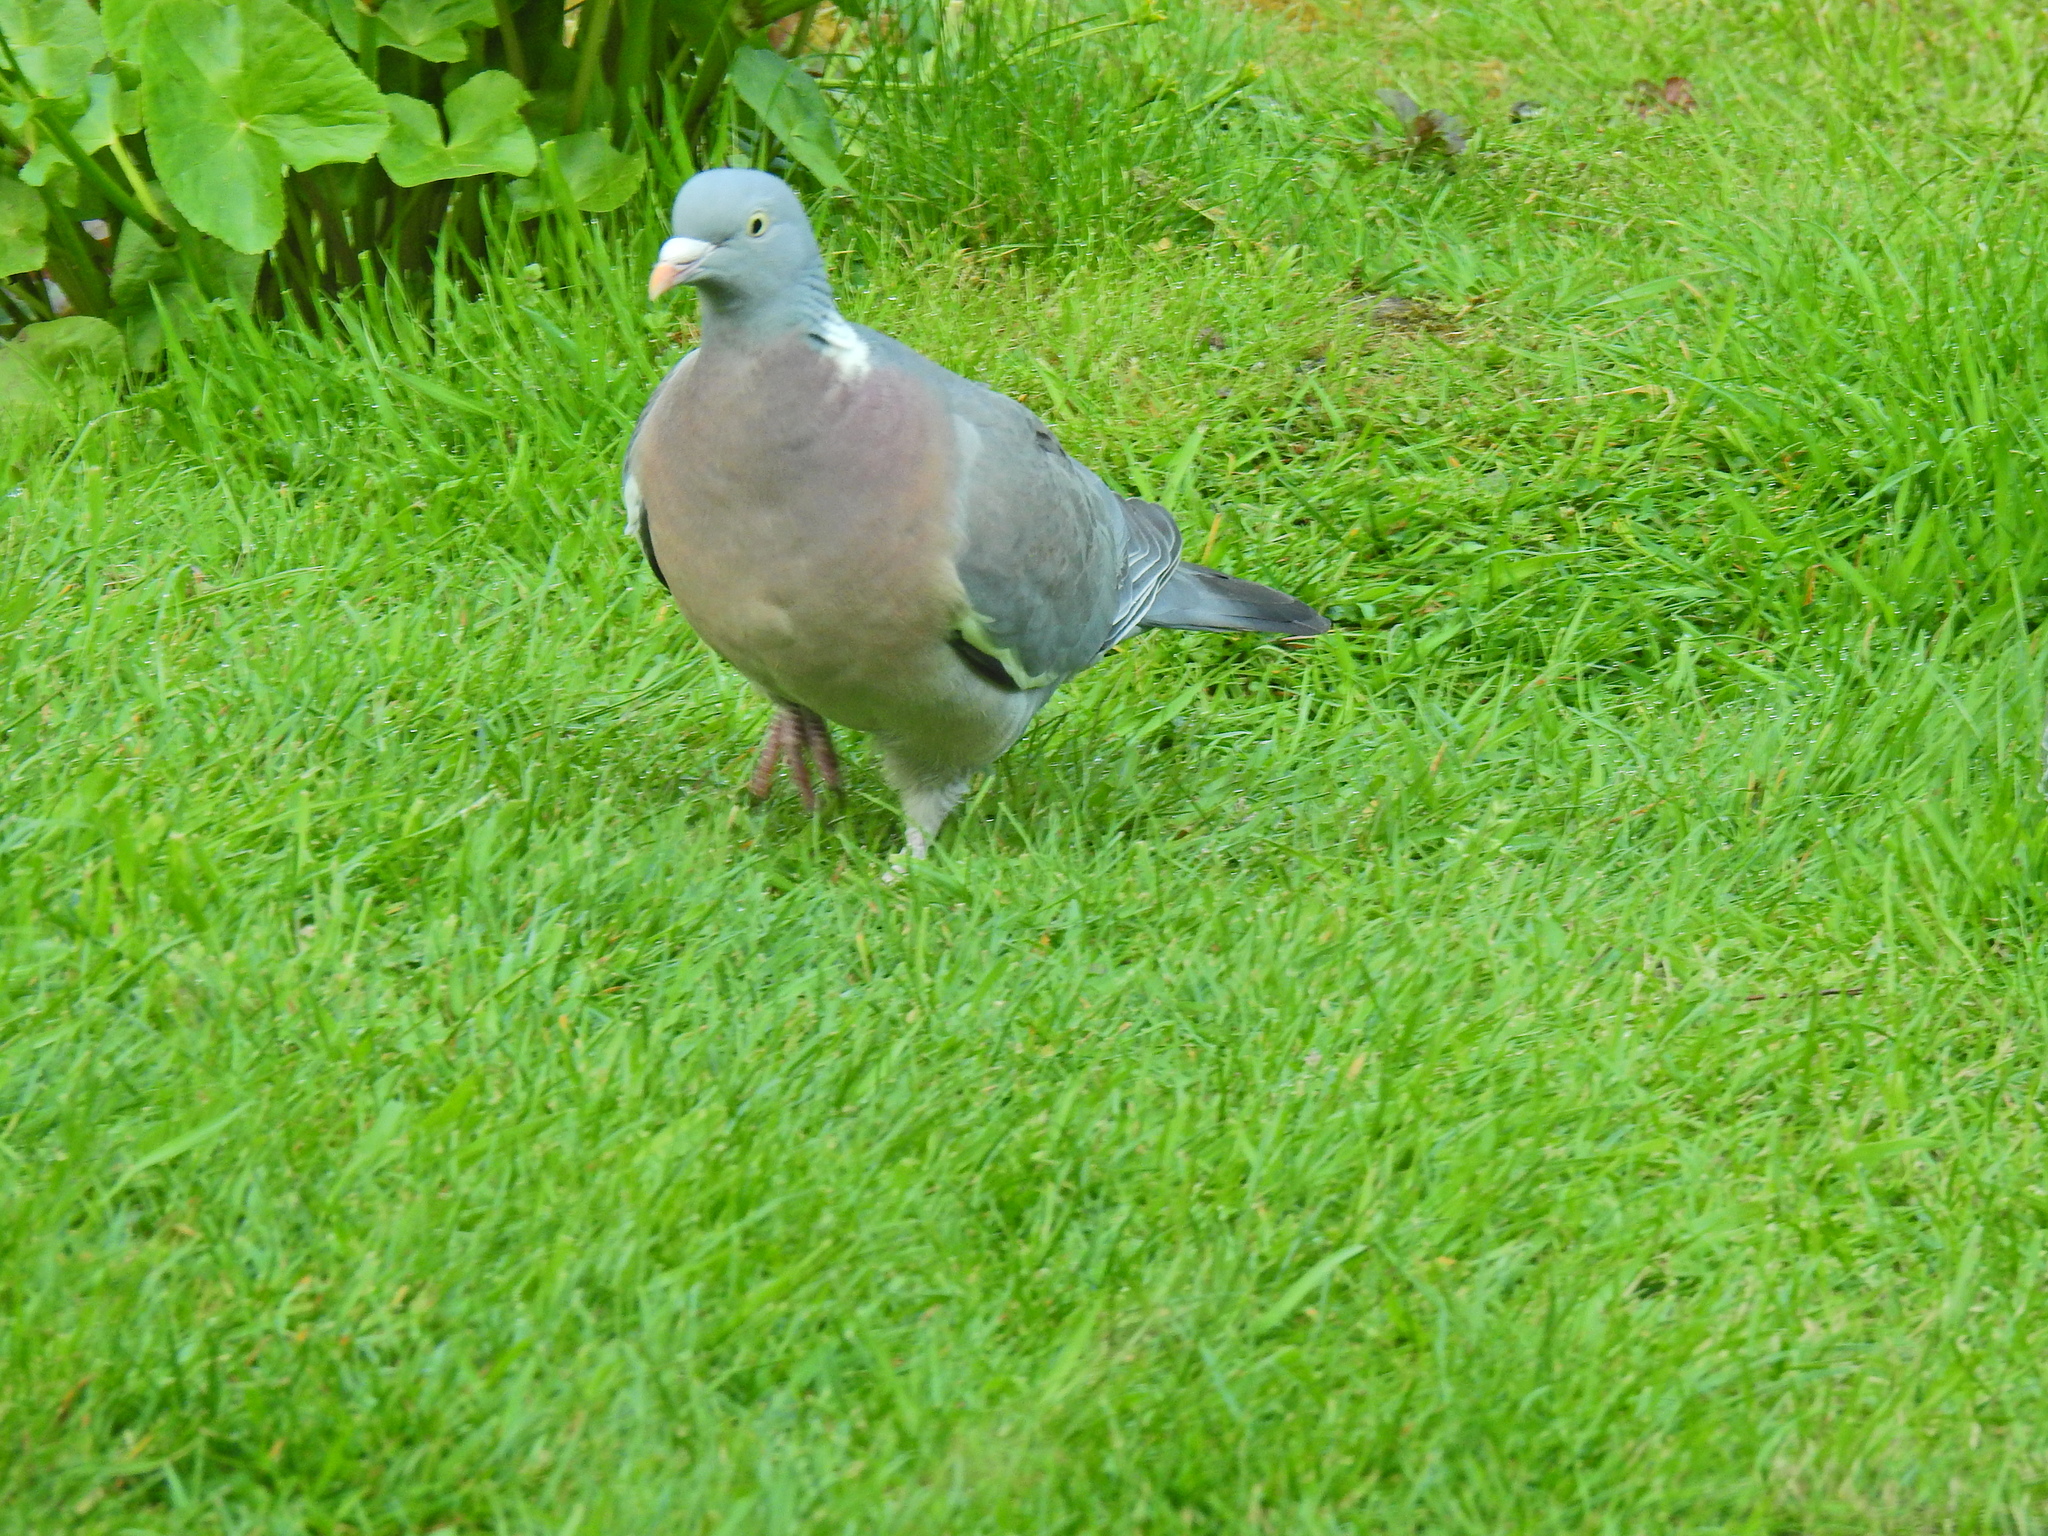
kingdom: Animalia
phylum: Chordata
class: Aves
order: Columbiformes
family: Columbidae
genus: Columba
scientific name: Columba palumbus
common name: Common wood pigeon
